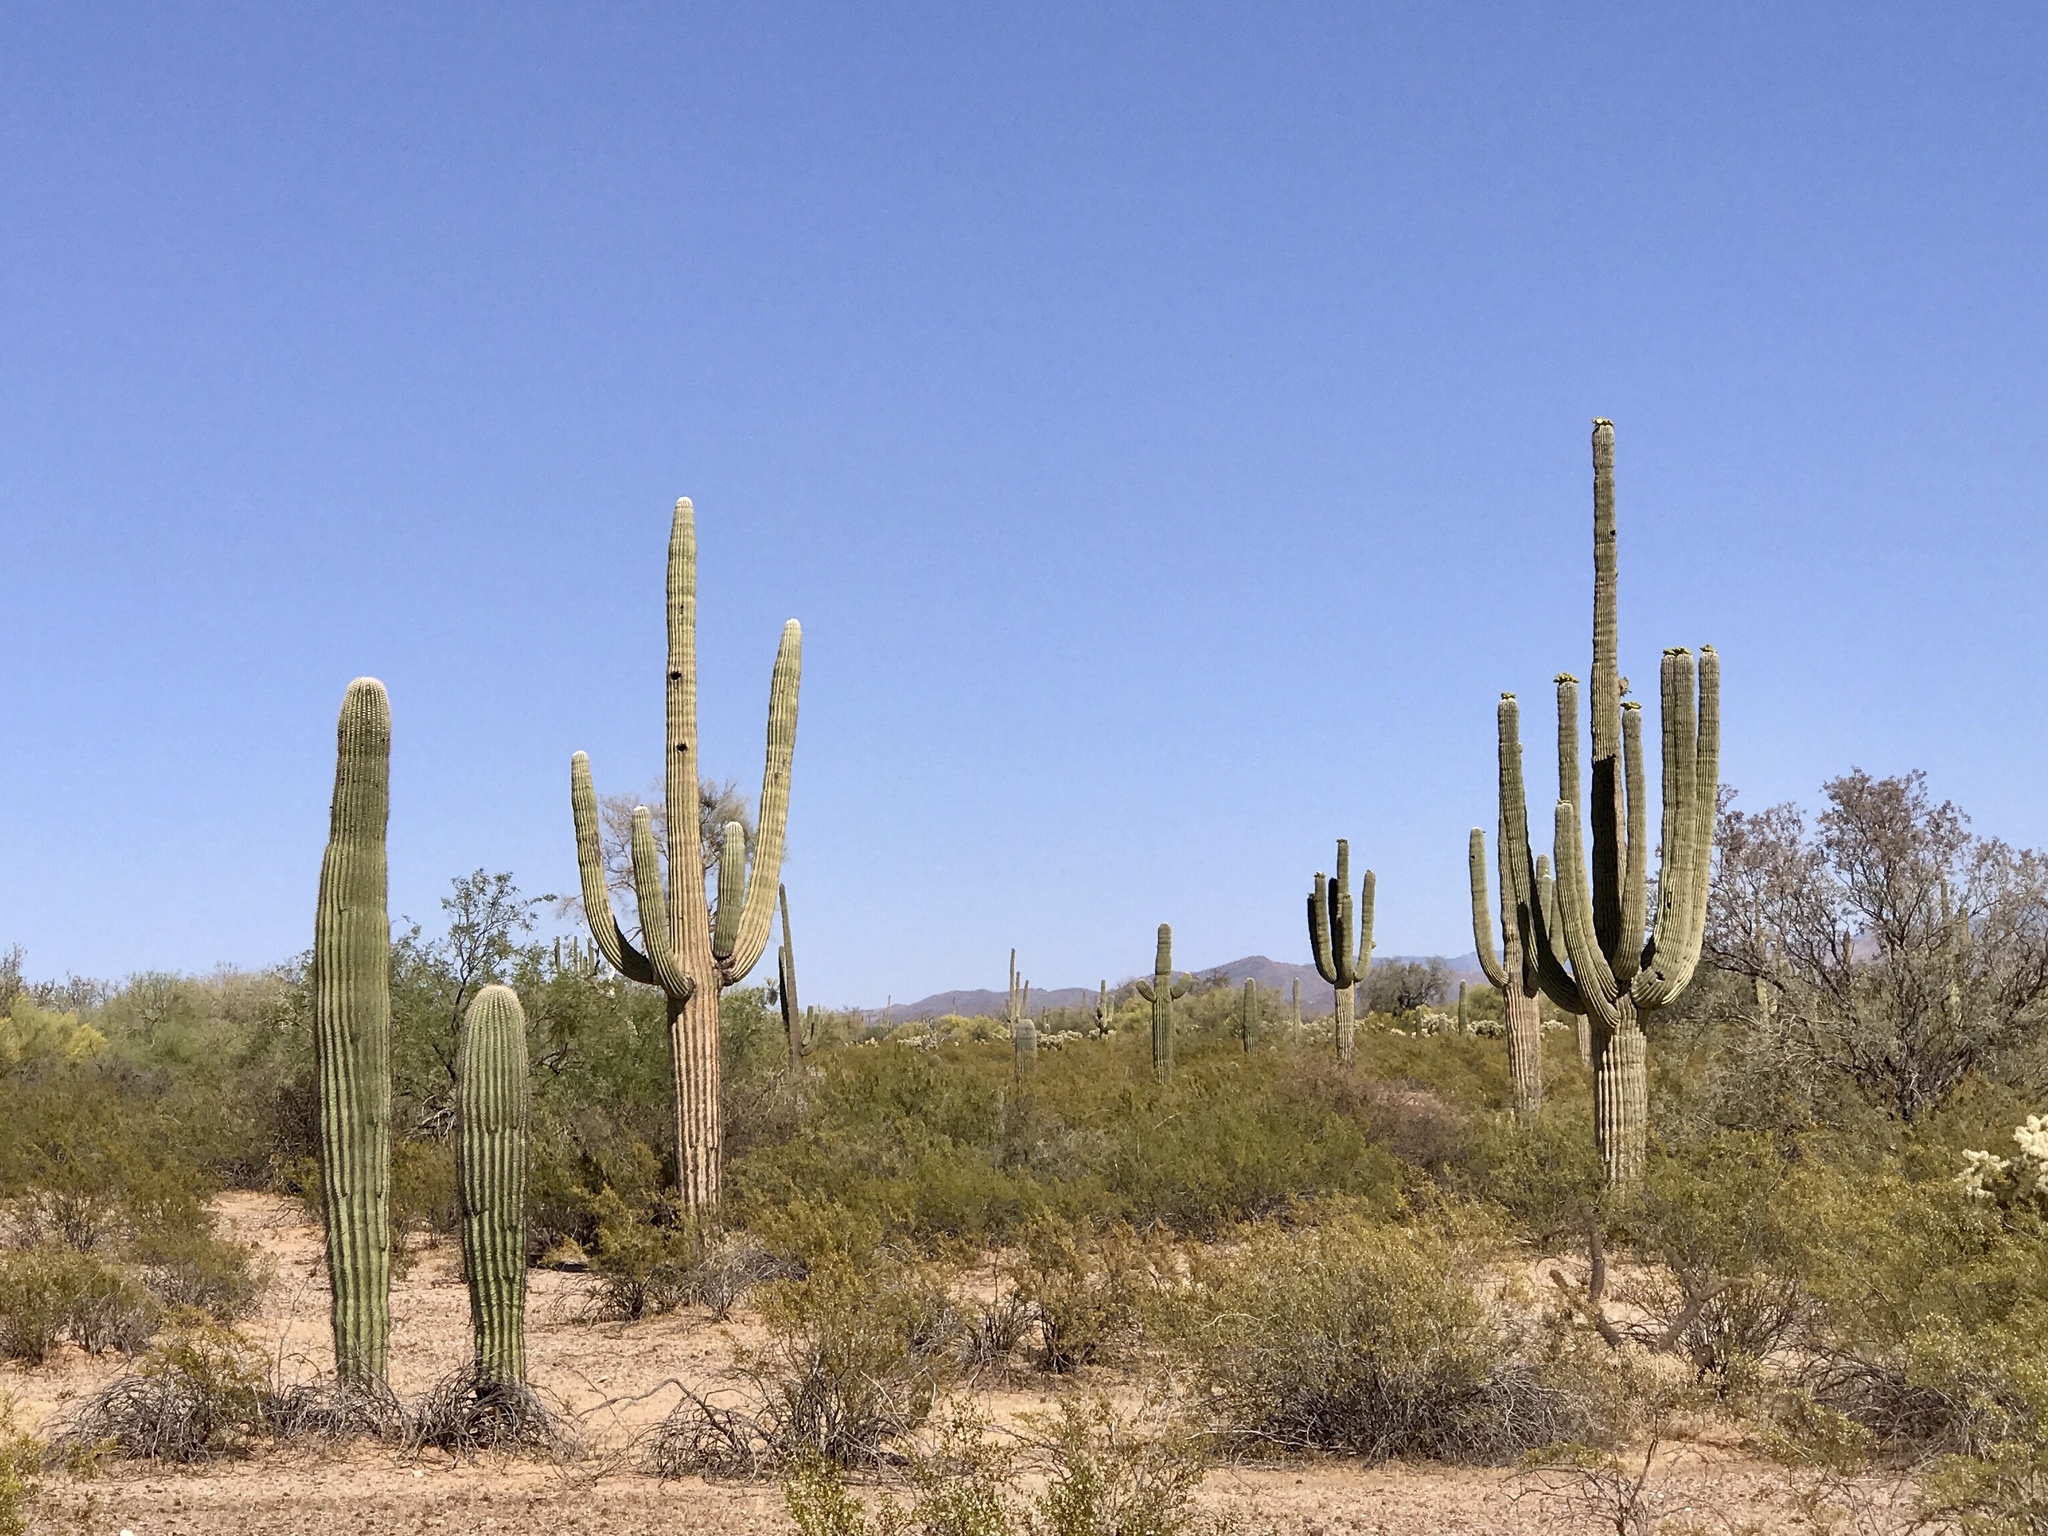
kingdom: Plantae
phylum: Tracheophyta
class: Magnoliopsida
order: Caryophyllales
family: Cactaceae
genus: Carnegiea
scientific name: Carnegiea gigantea
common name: Saguaro
